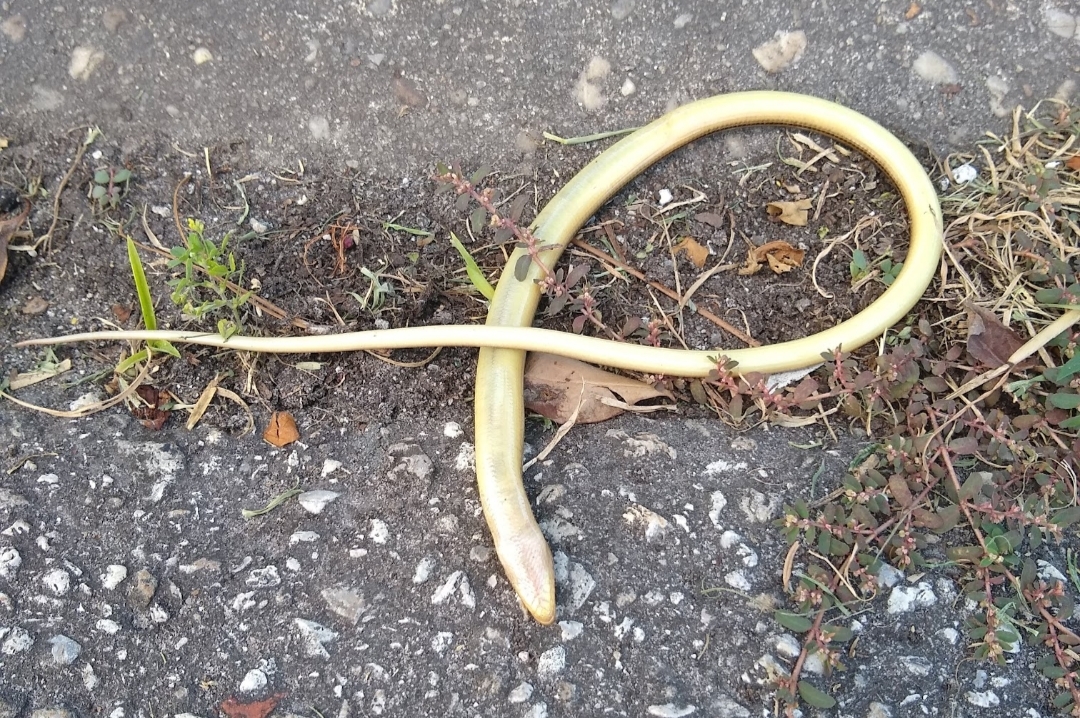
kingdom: Animalia
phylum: Chordata
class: Squamata
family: Anguidae
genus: Ophisaurus
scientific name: Ophisaurus ventralis
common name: Eastern glass lizard
